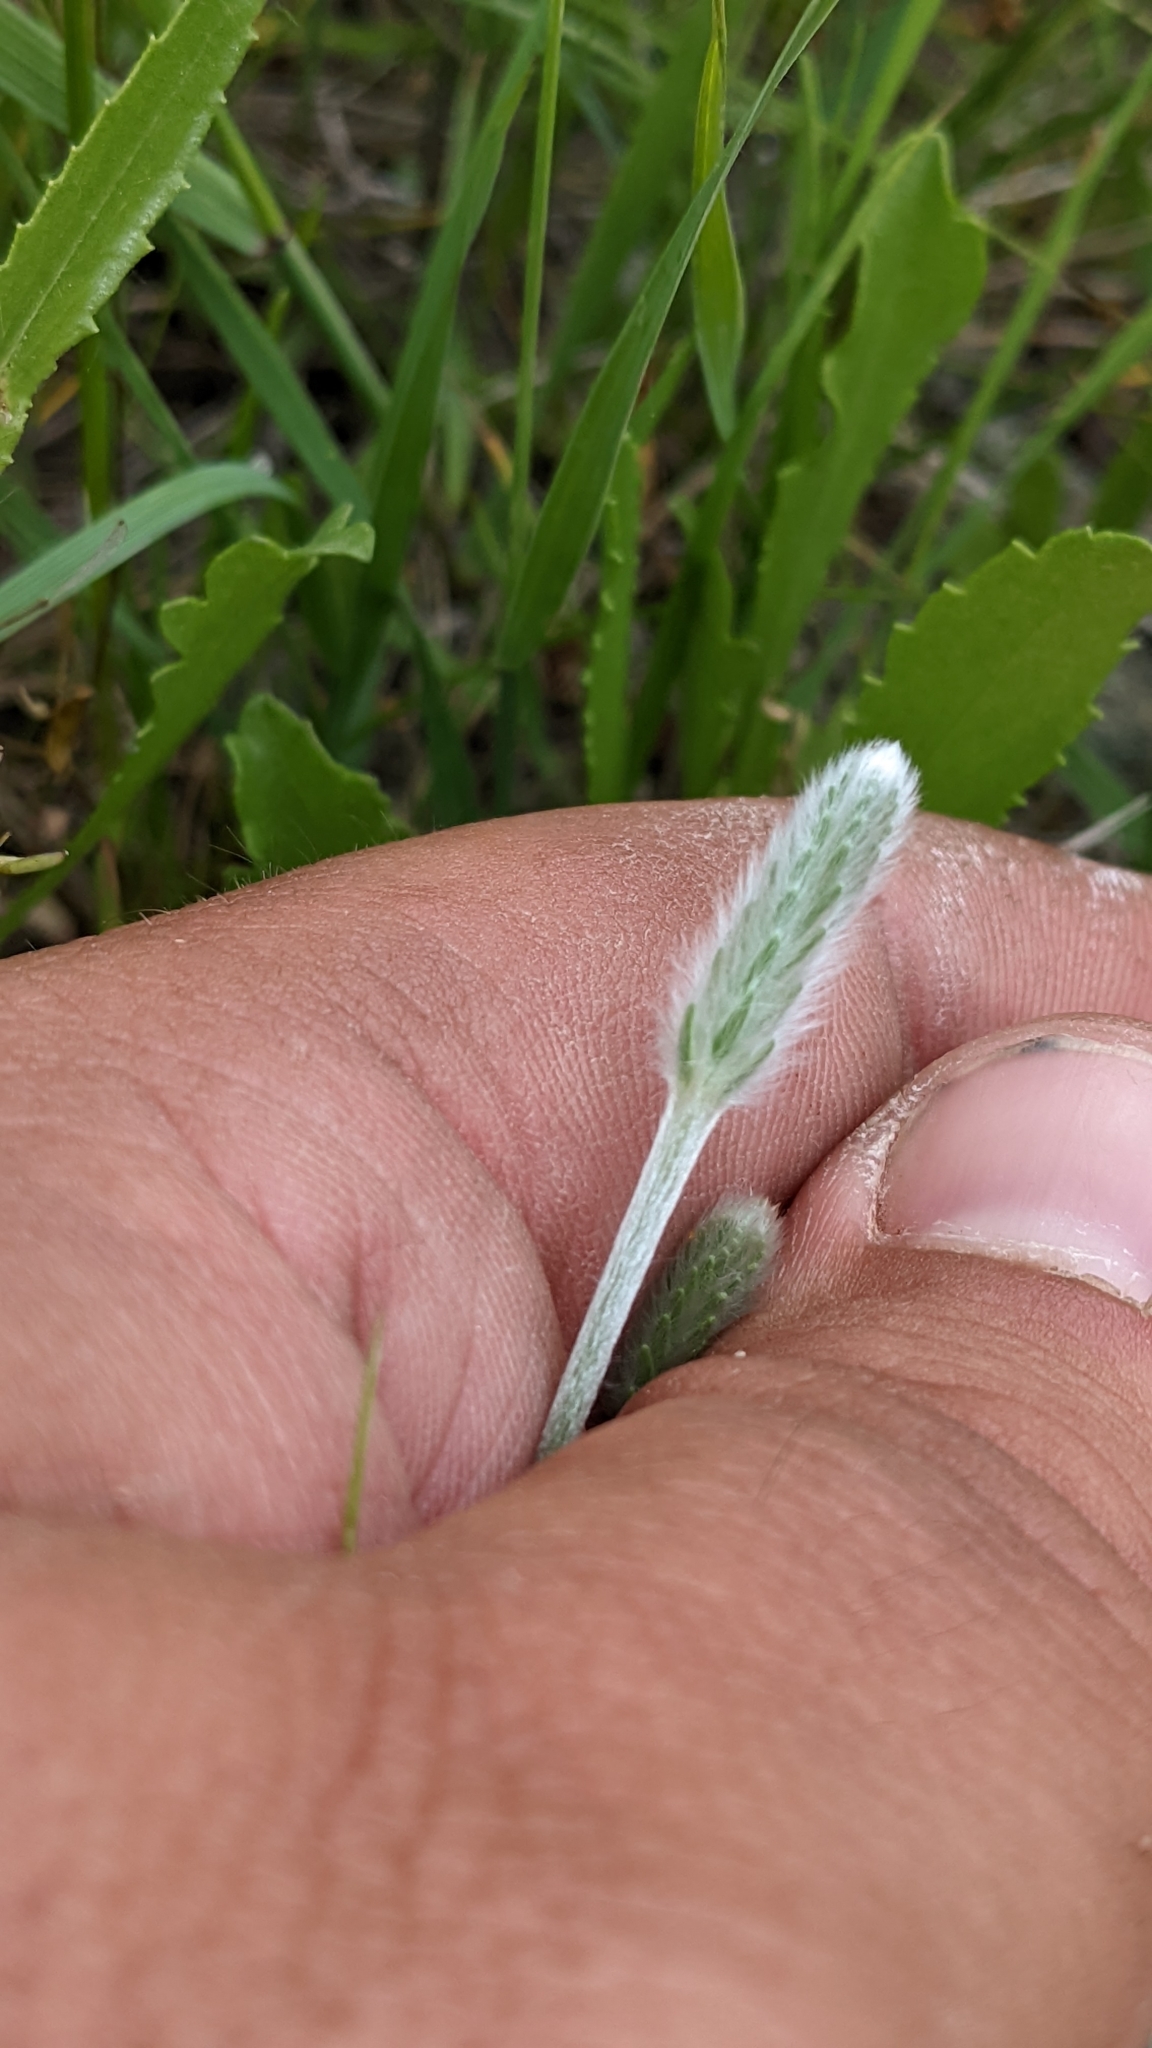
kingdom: Plantae
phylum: Tracheophyta
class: Magnoliopsida
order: Lamiales
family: Plantaginaceae
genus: Plantago
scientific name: Plantago patagonica
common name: Patagonia indian-wheat
